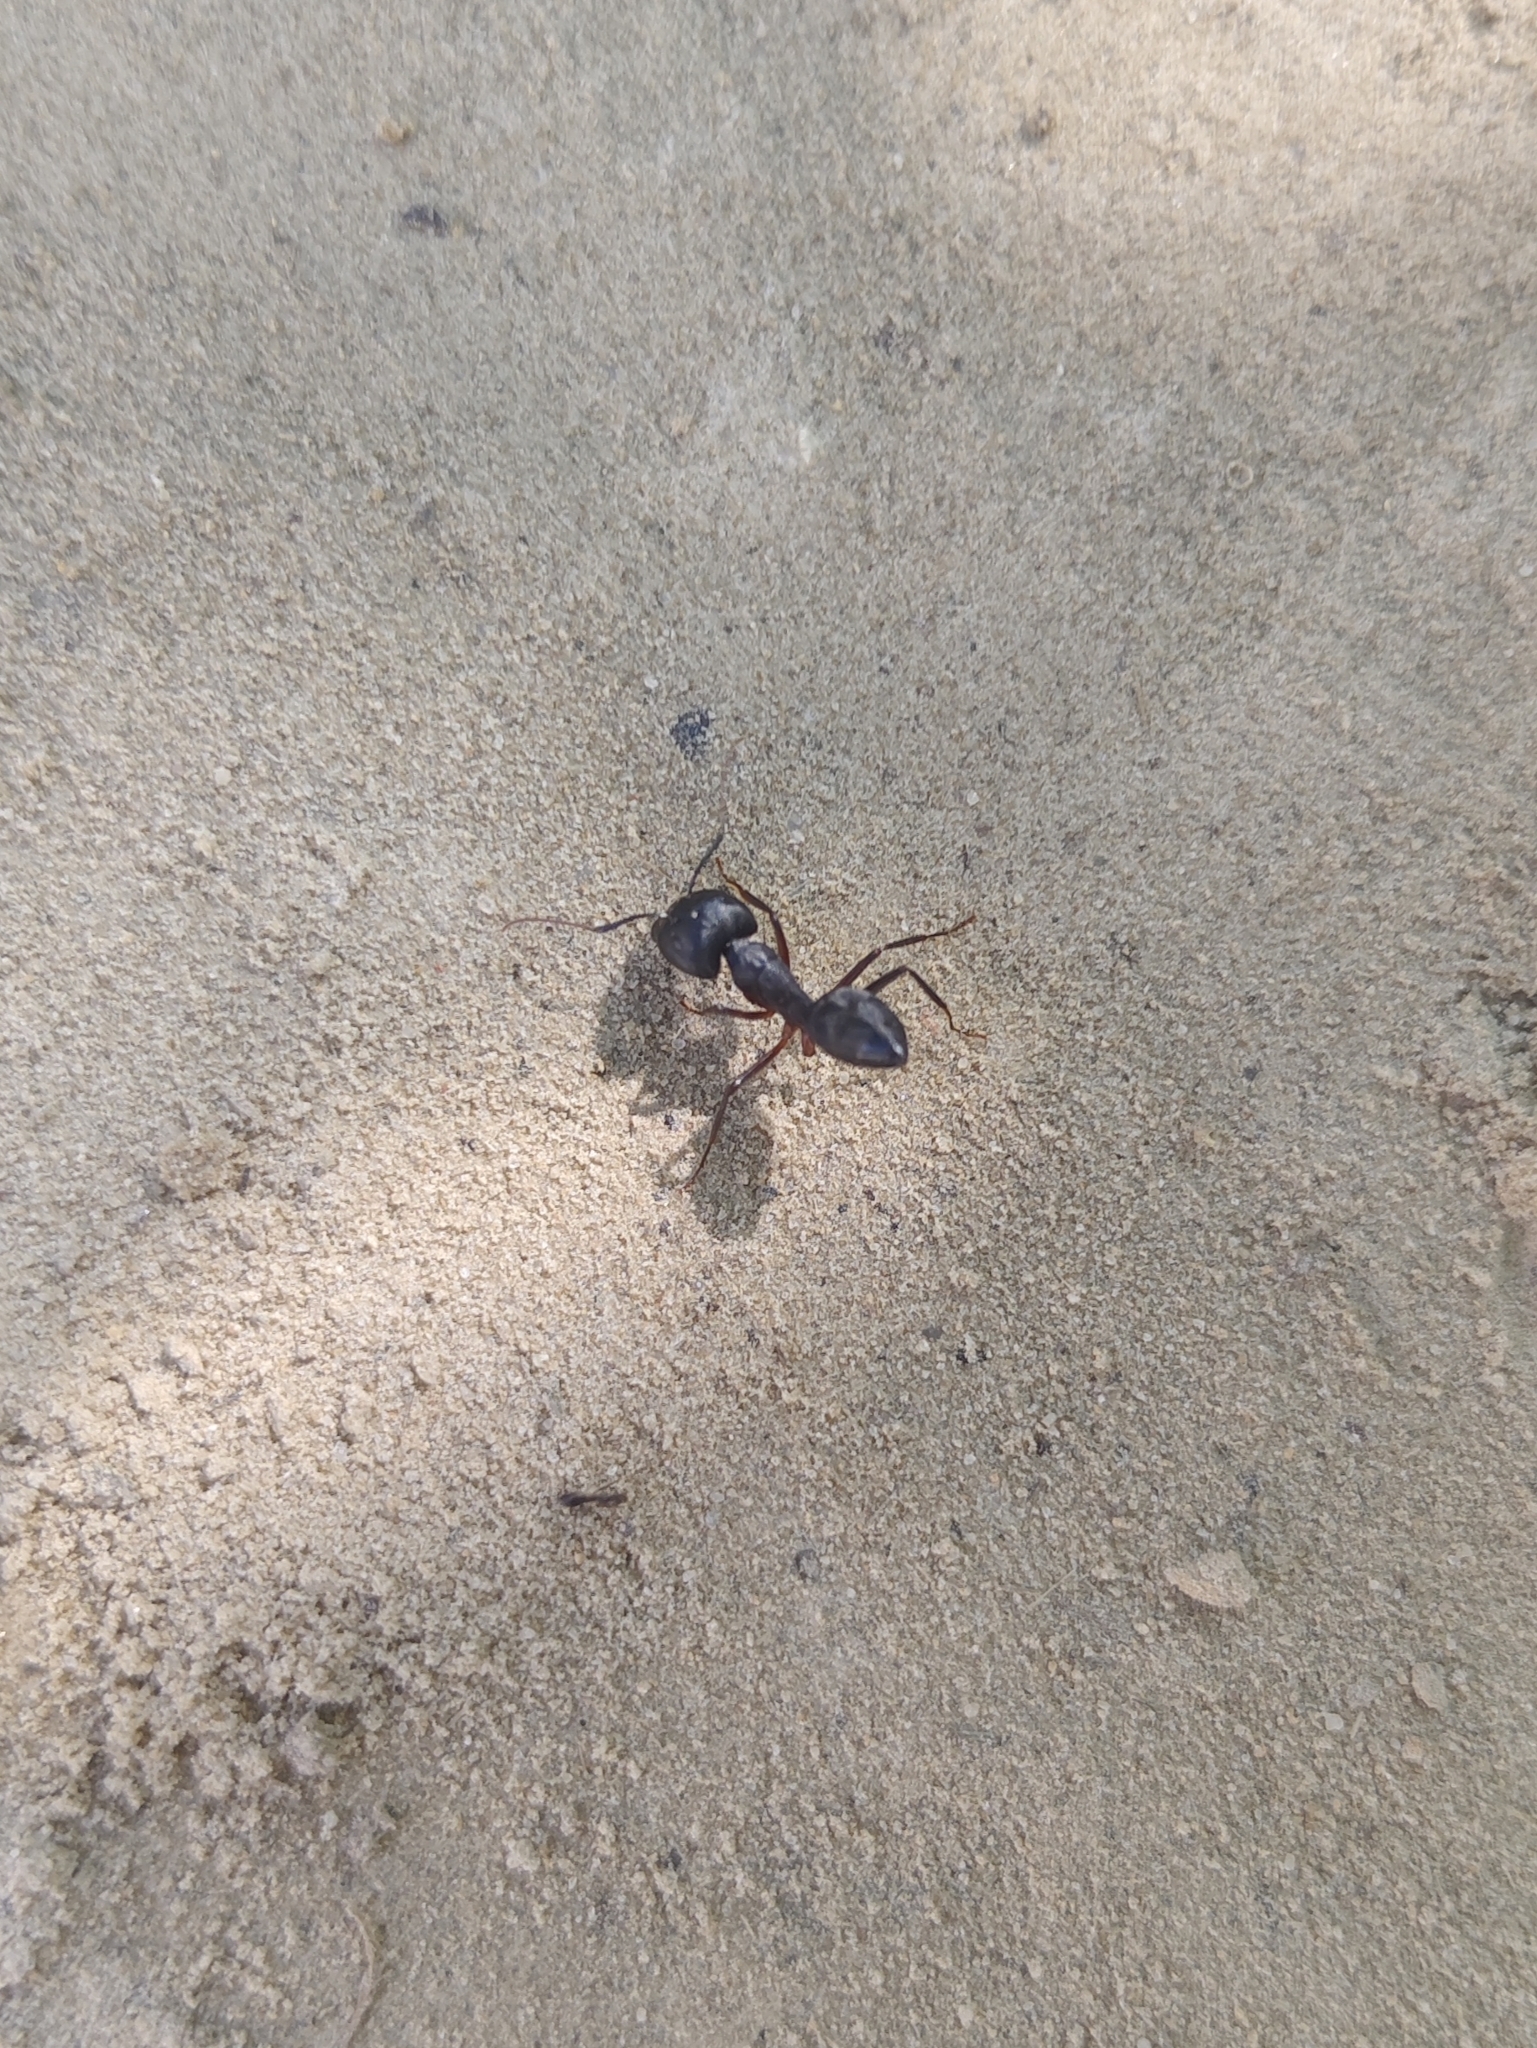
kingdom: Animalia
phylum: Arthropoda
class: Insecta
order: Hymenoptera
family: Formicidae
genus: Camponotus
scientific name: Camponotus compressus
